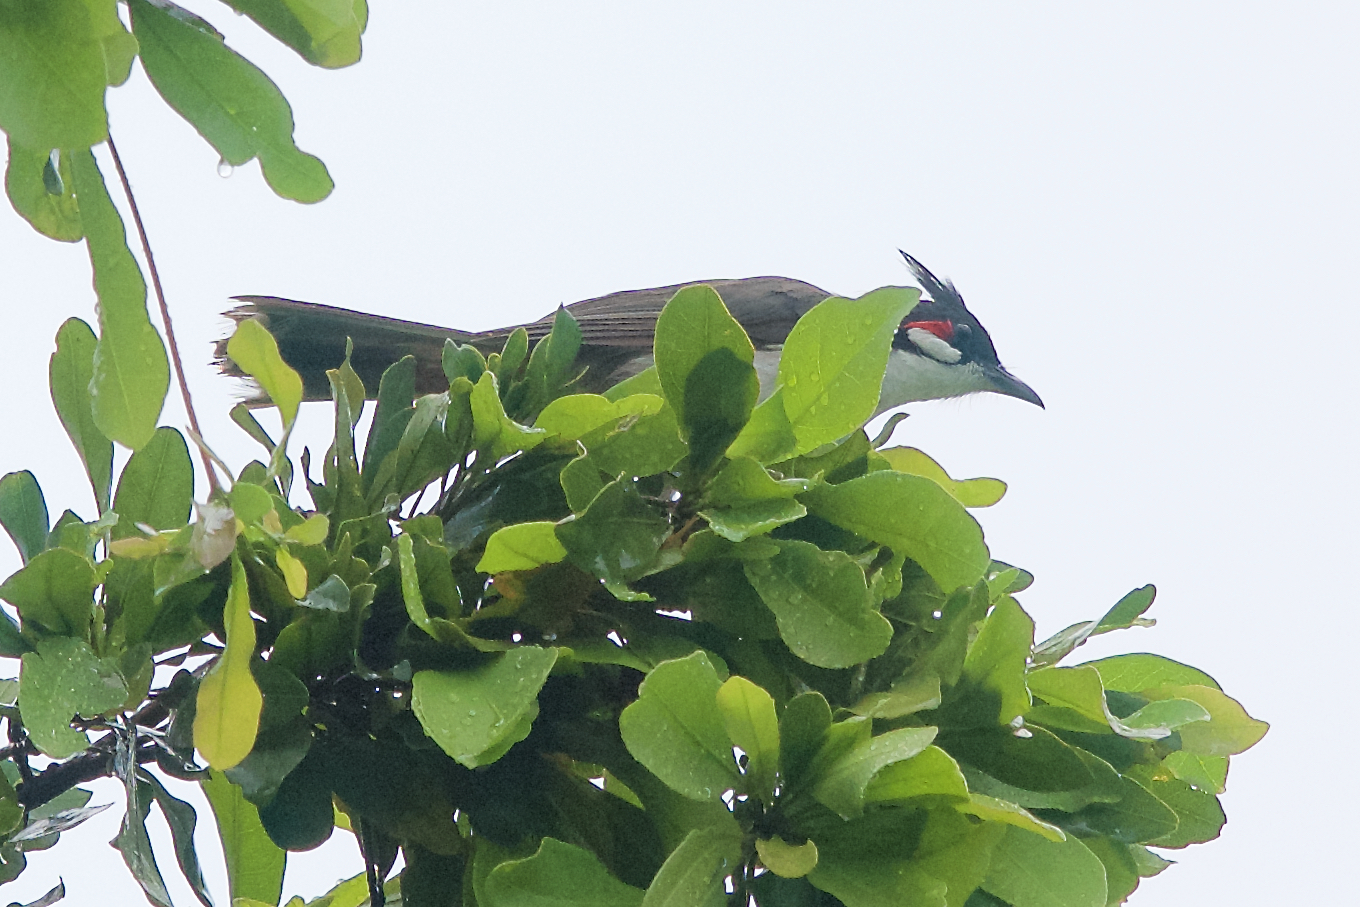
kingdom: Animalia
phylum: Chordata
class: Aves
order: Passeriformes
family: Pycnonotidae
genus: Pycnonotus
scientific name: Pycnonotus jocosus
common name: Red-whiskered bulbul
